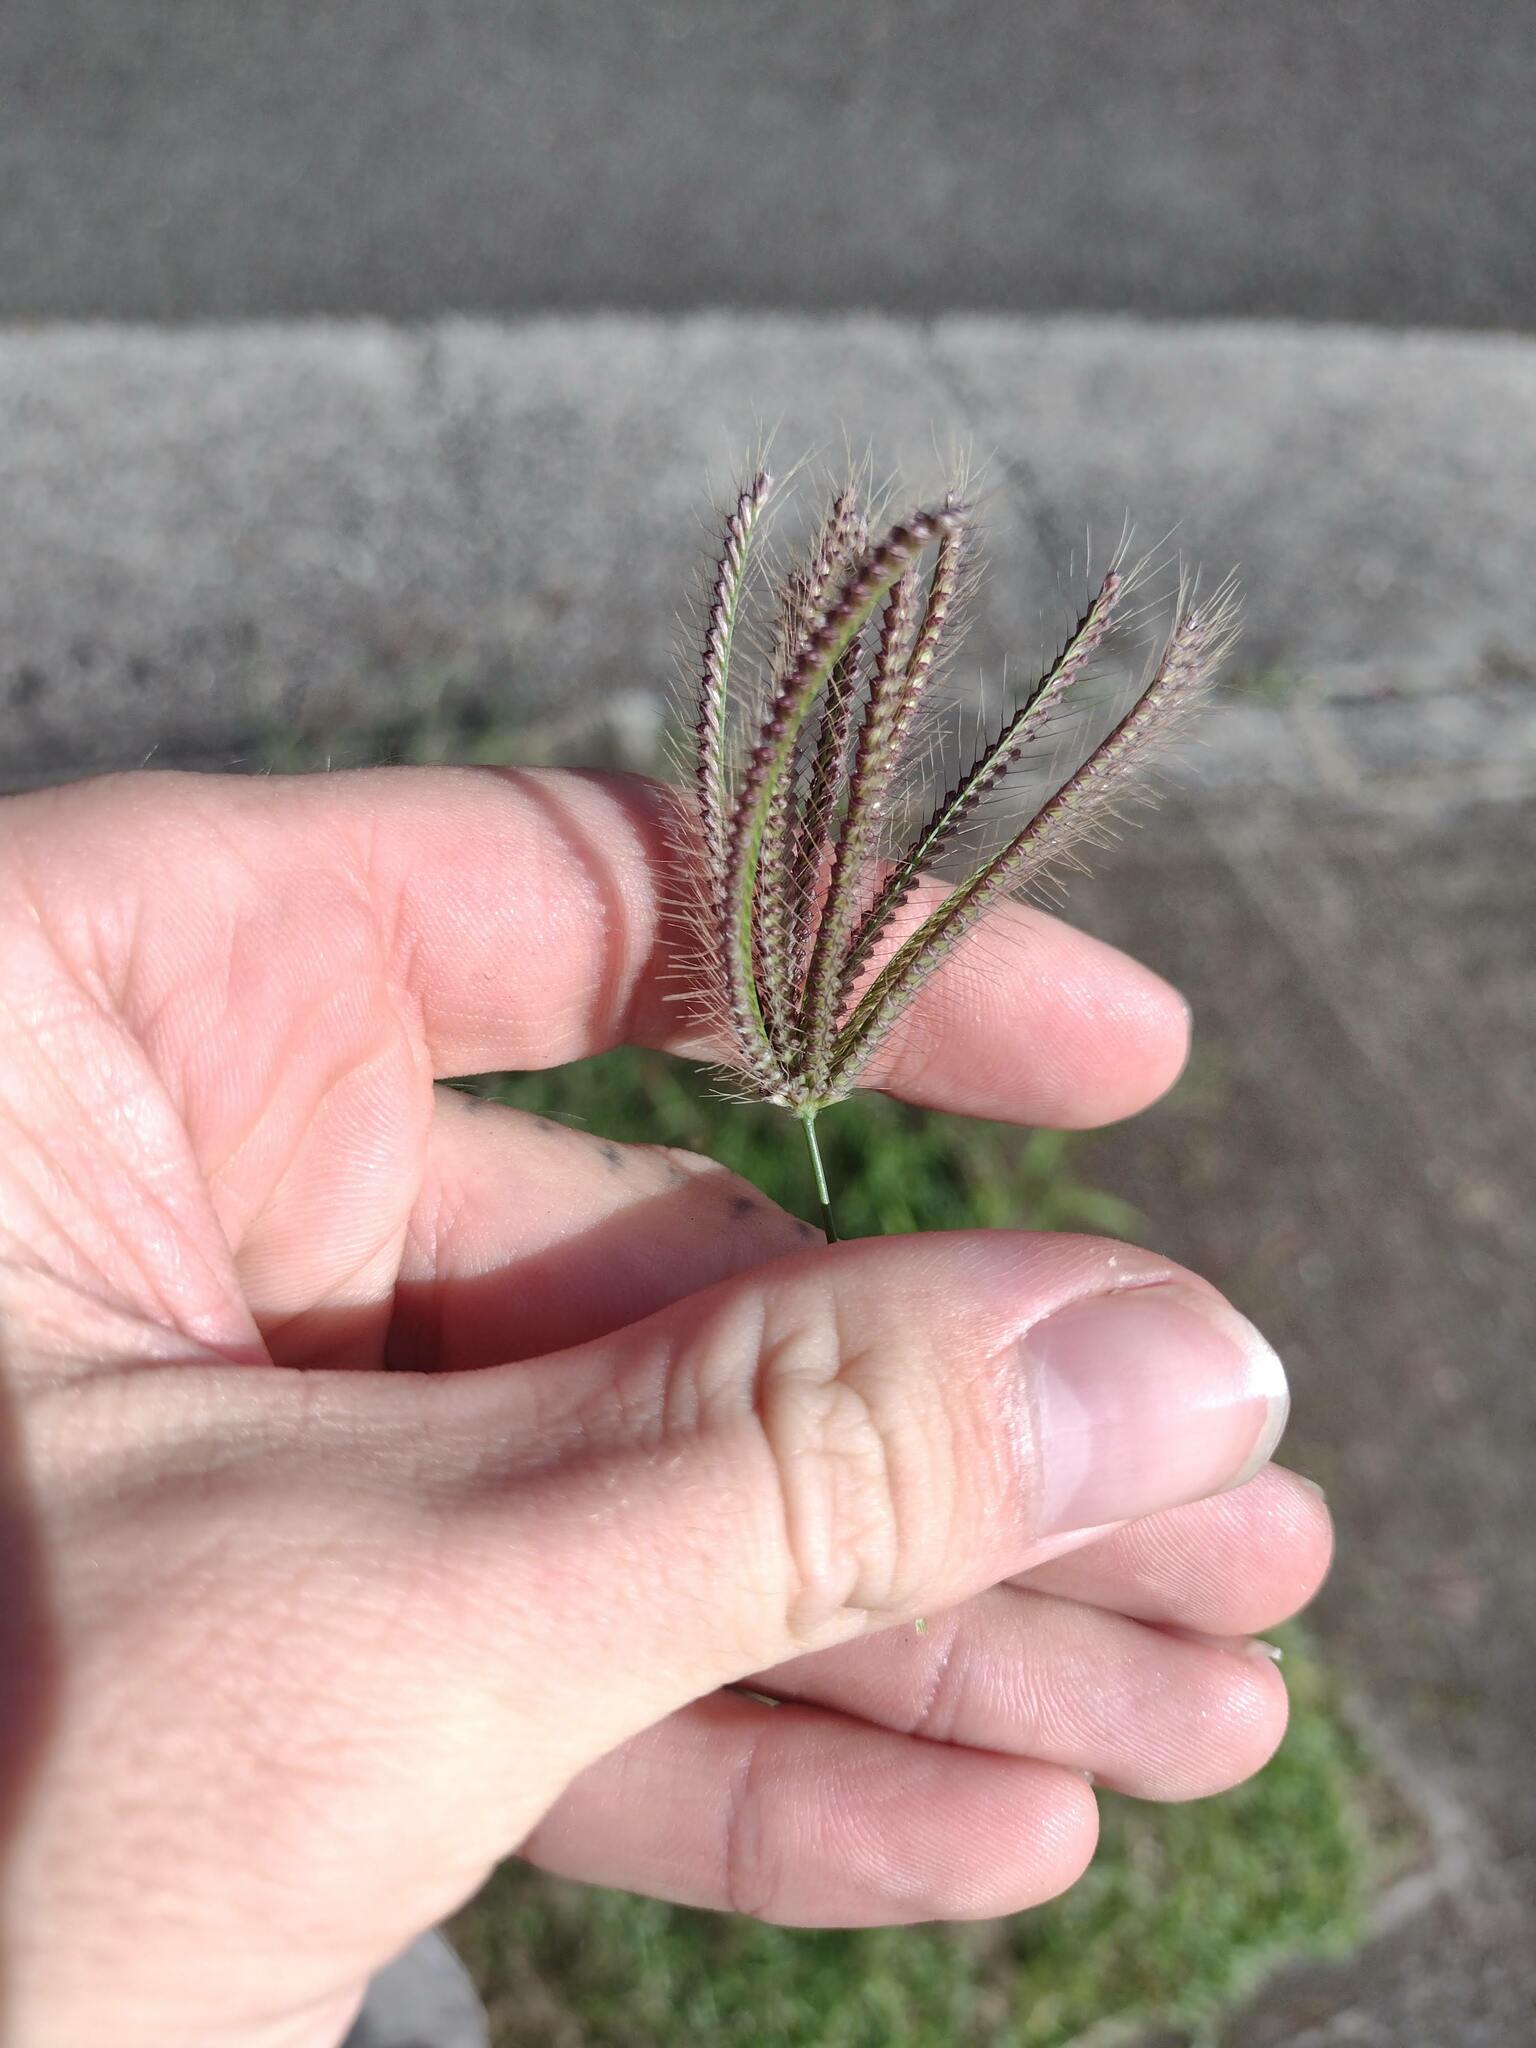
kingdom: Plantae
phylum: Tracheophyta
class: Liliopsida
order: Poales
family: Poaceae
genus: Chloris
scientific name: Chloris barbata
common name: Swollen fingergrass
